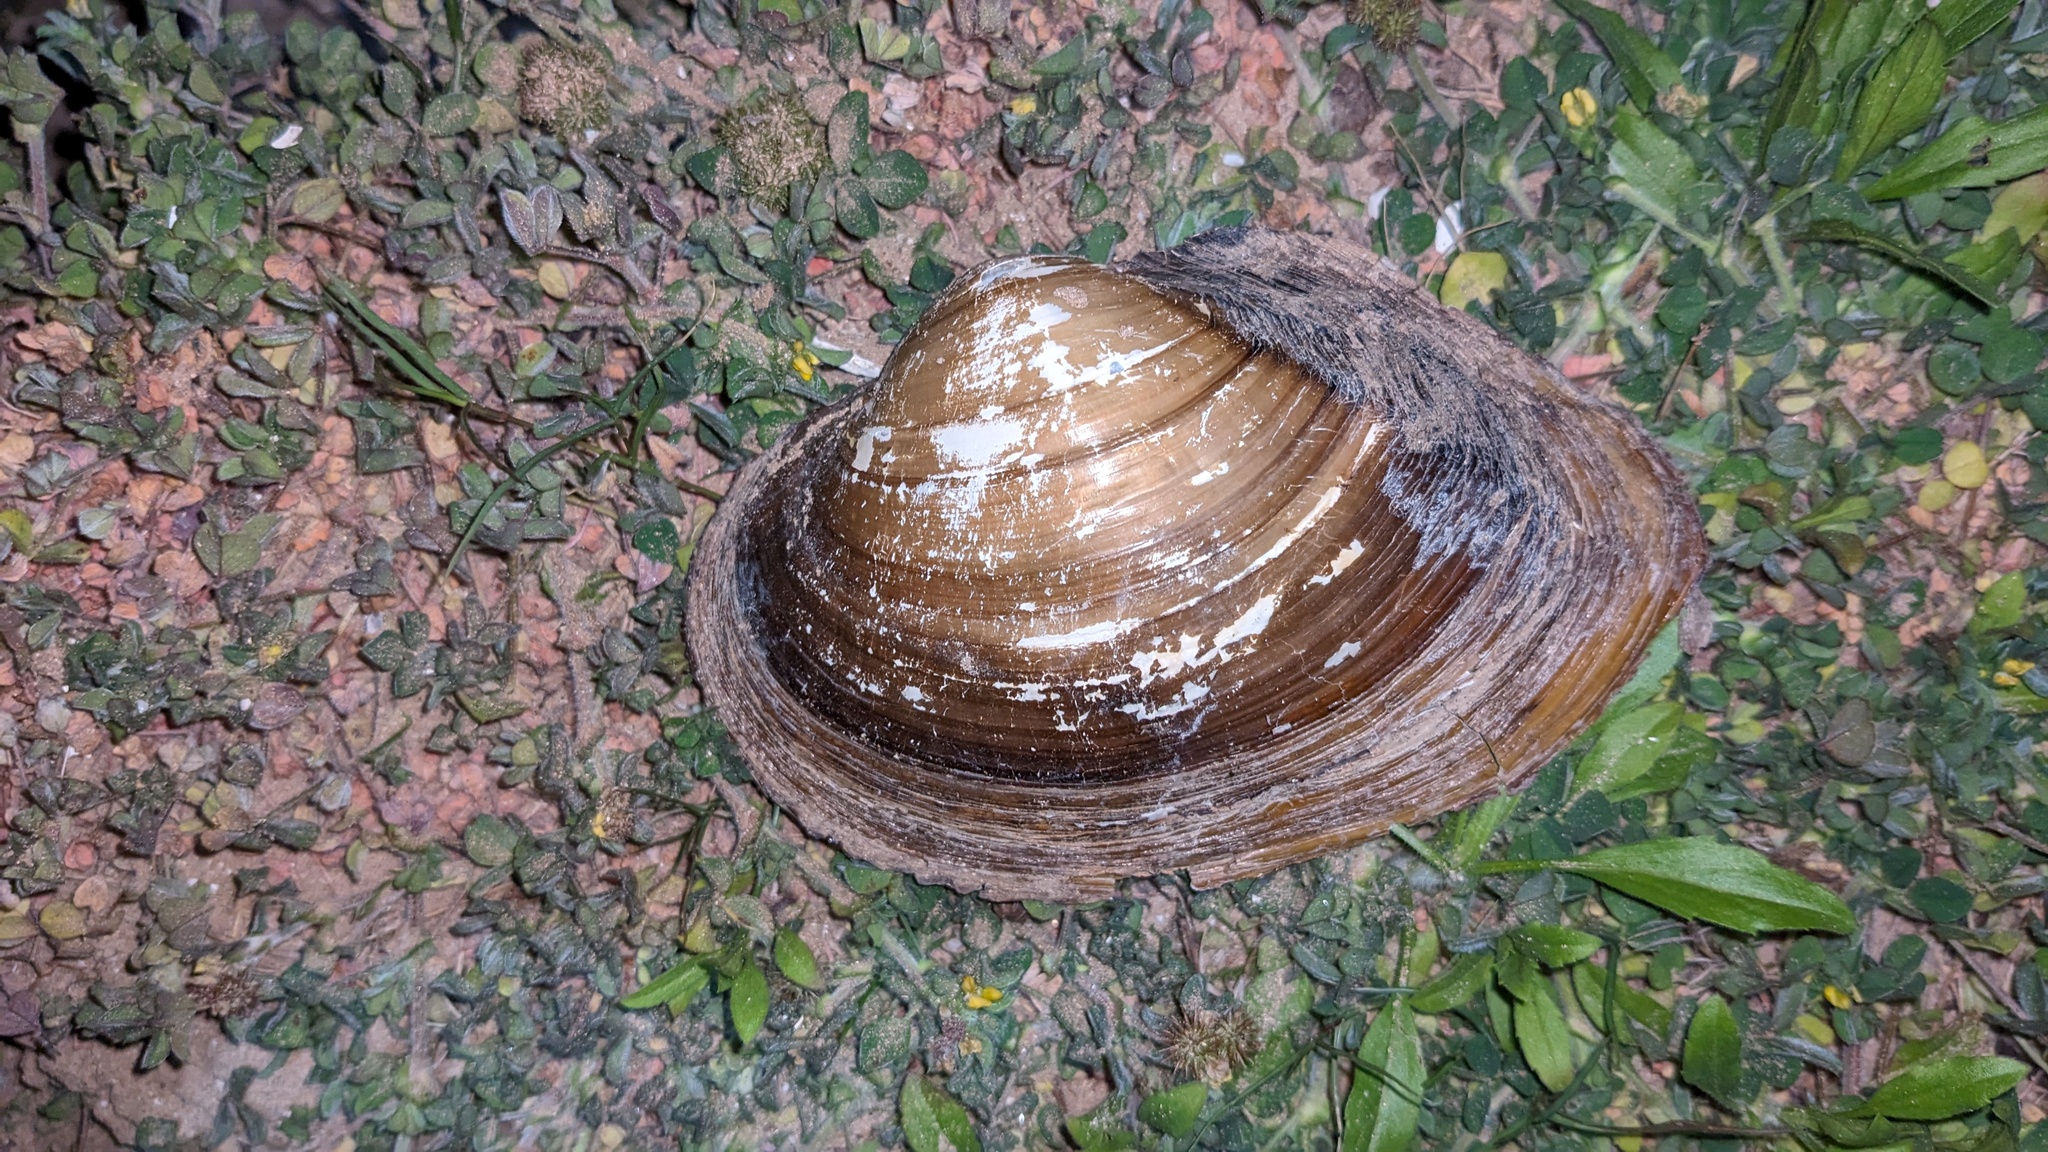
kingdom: Animalia
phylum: Mollusca
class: Bivalvia
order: Unionida
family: Unionidae
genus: Pyganodon
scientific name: Pyganodon grandis
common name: Giant floater
